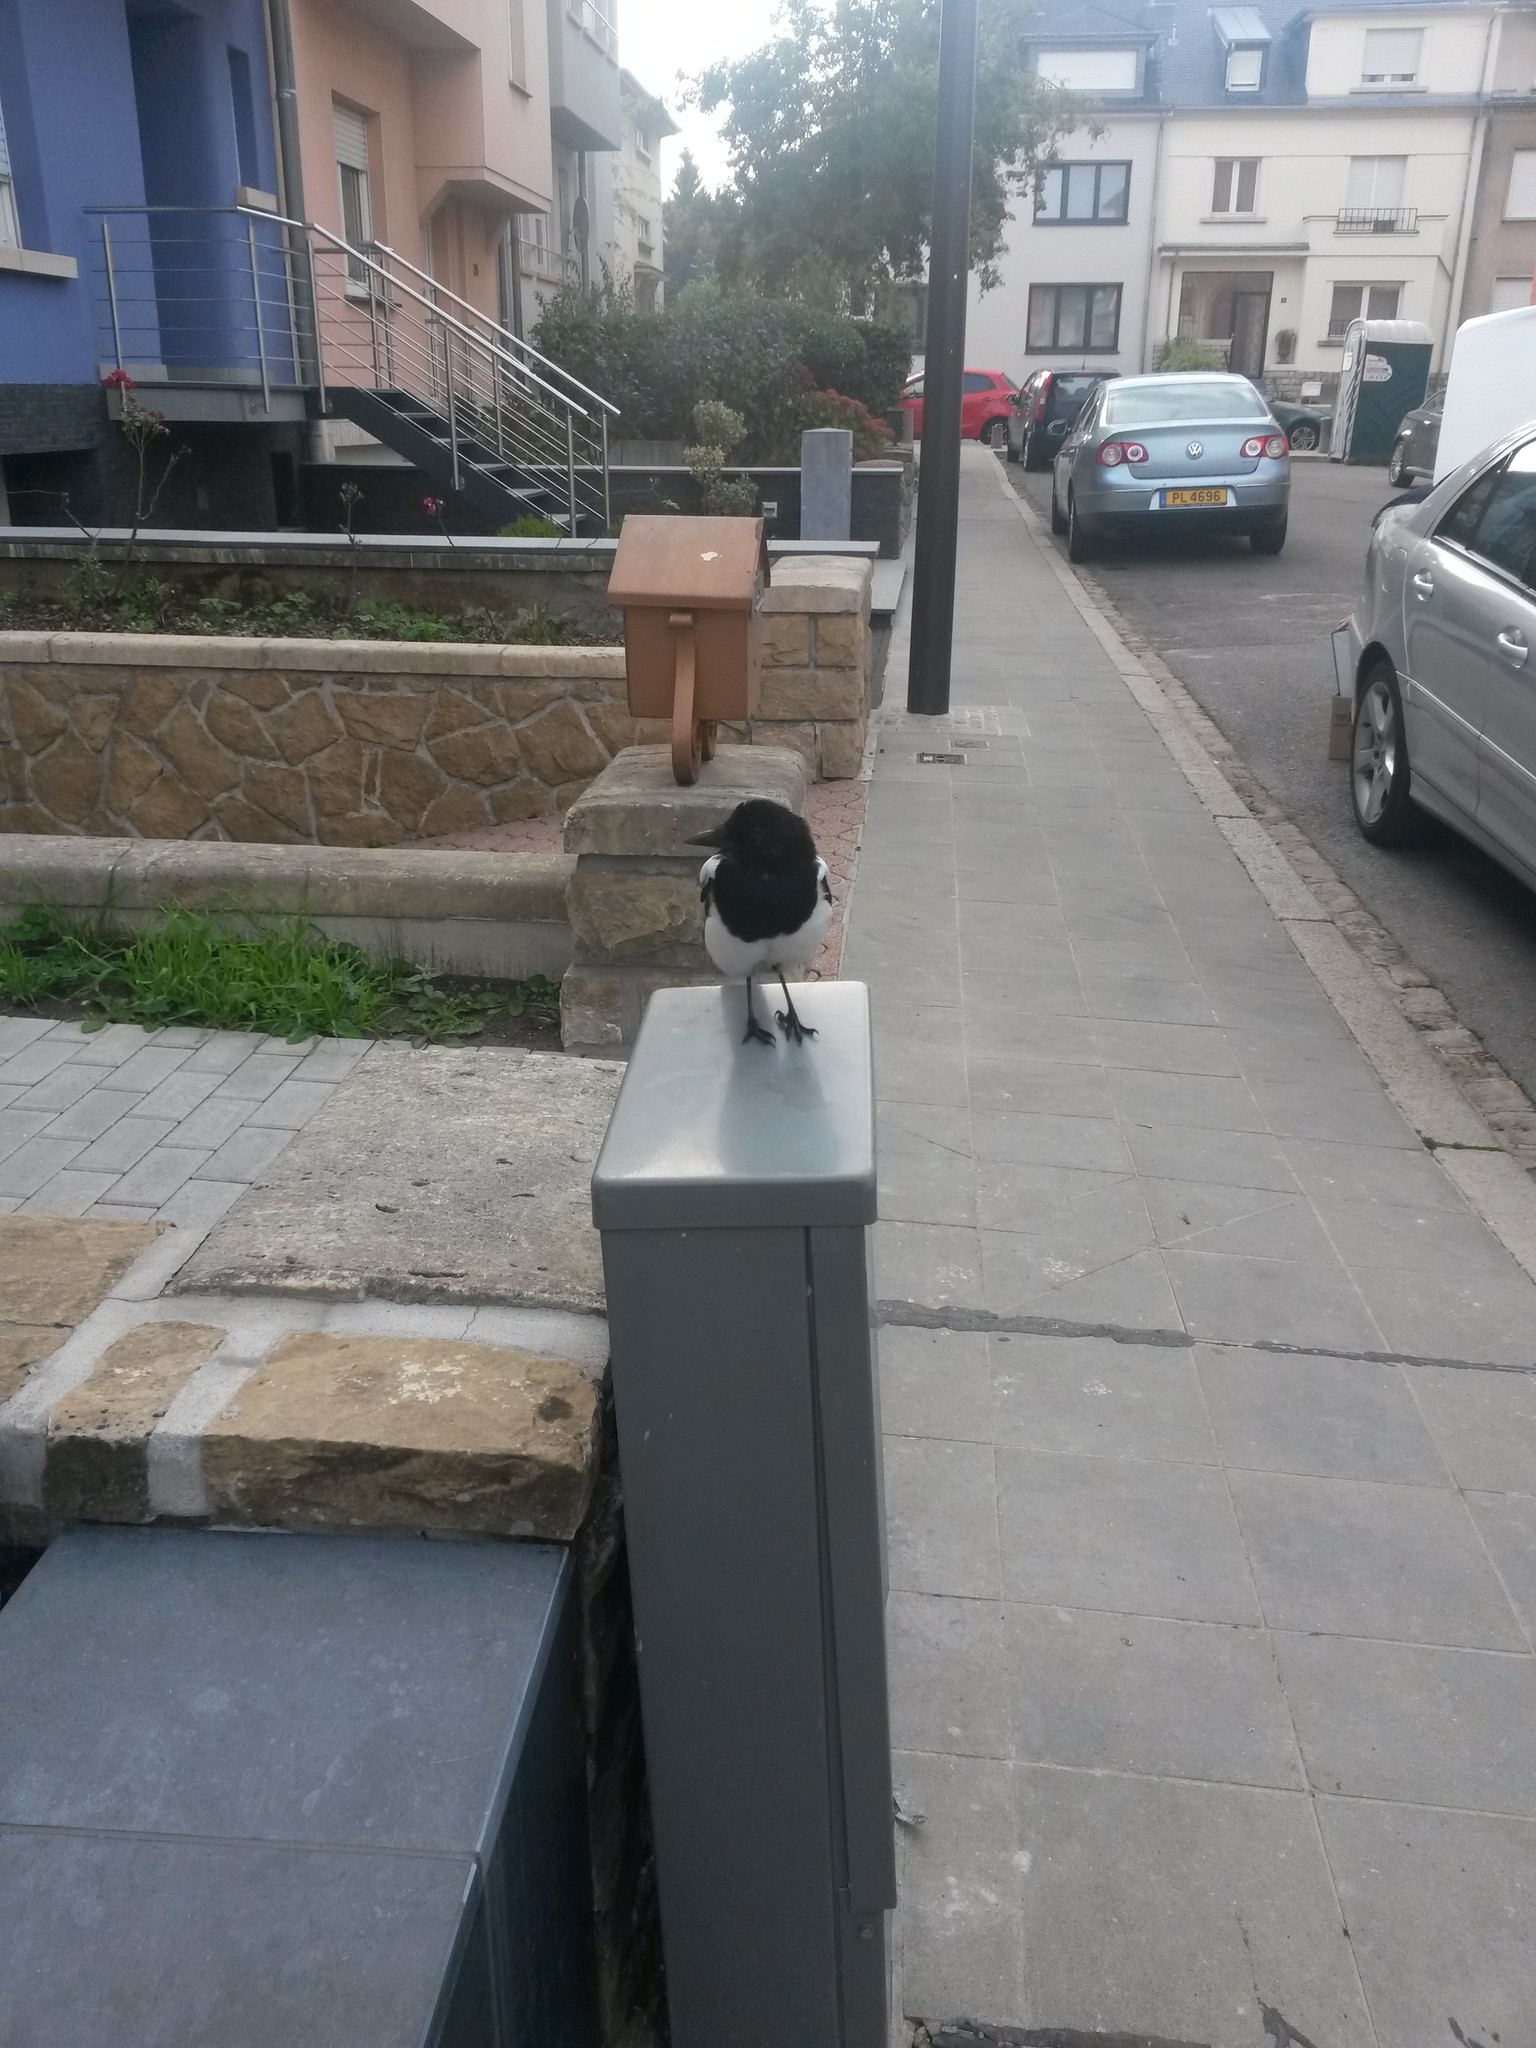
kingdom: Animalia
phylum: Chordata
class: Aves
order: Passeriformes
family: Corvidae
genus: Pica
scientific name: Pica pica
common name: Eurasian magpie
